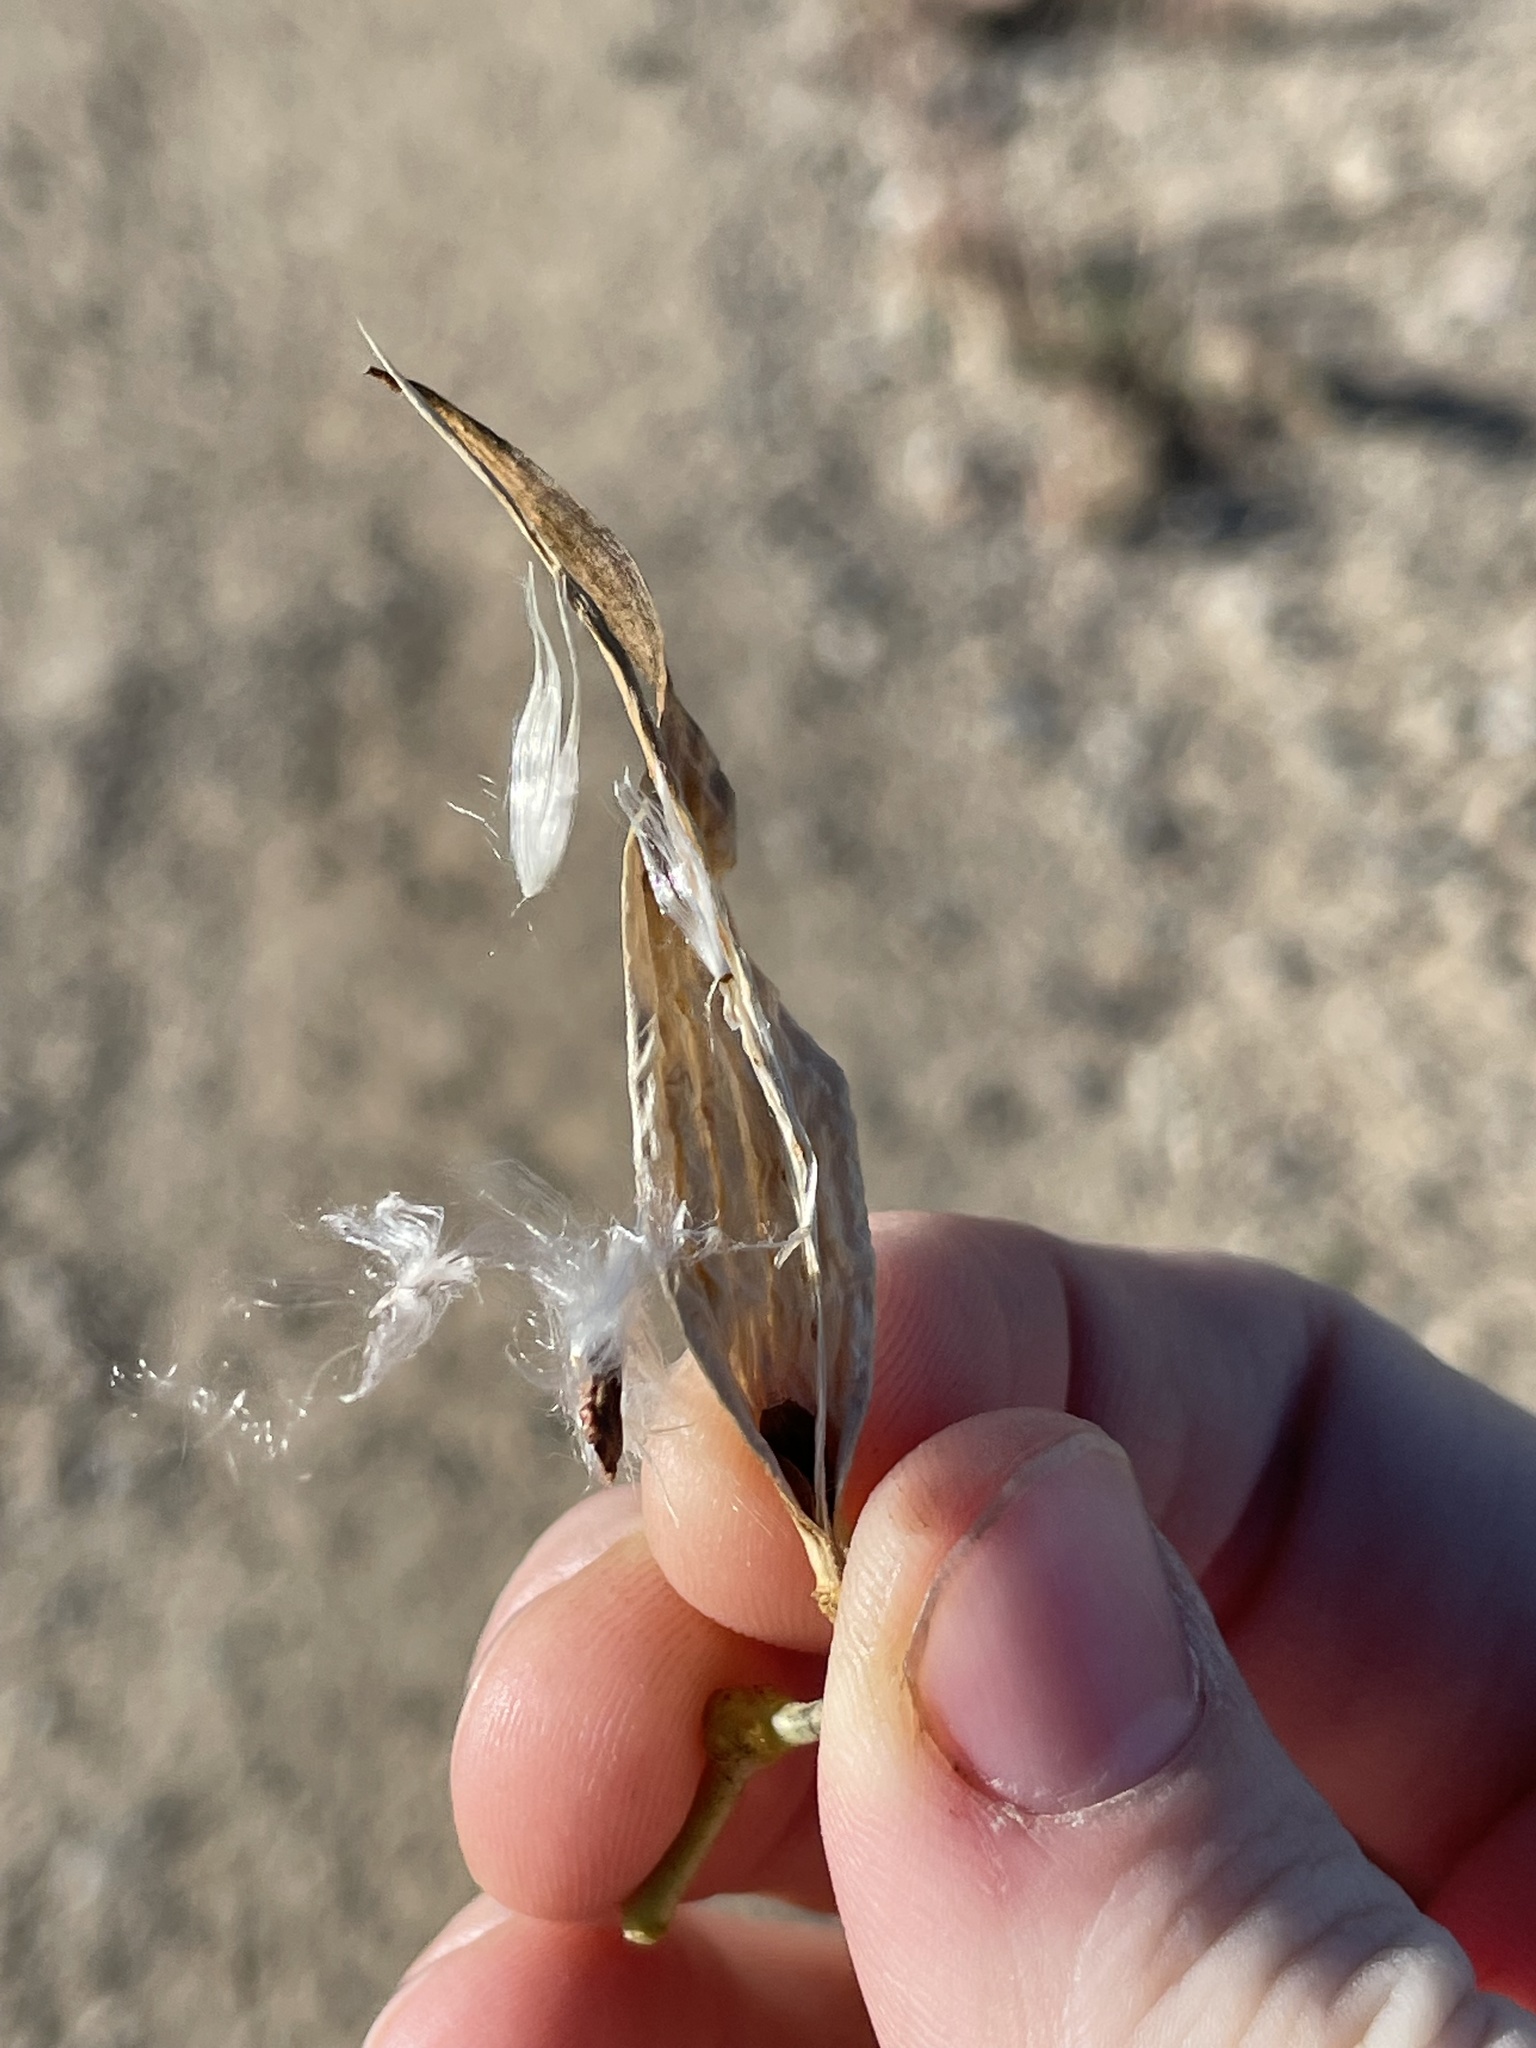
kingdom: Plantae
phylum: Tracheophyta
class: Magnoliopsida
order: Gentianales
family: Apocynaceae
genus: Asclepias
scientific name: Asclepias subverticillata
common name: Horsetail milkweed
